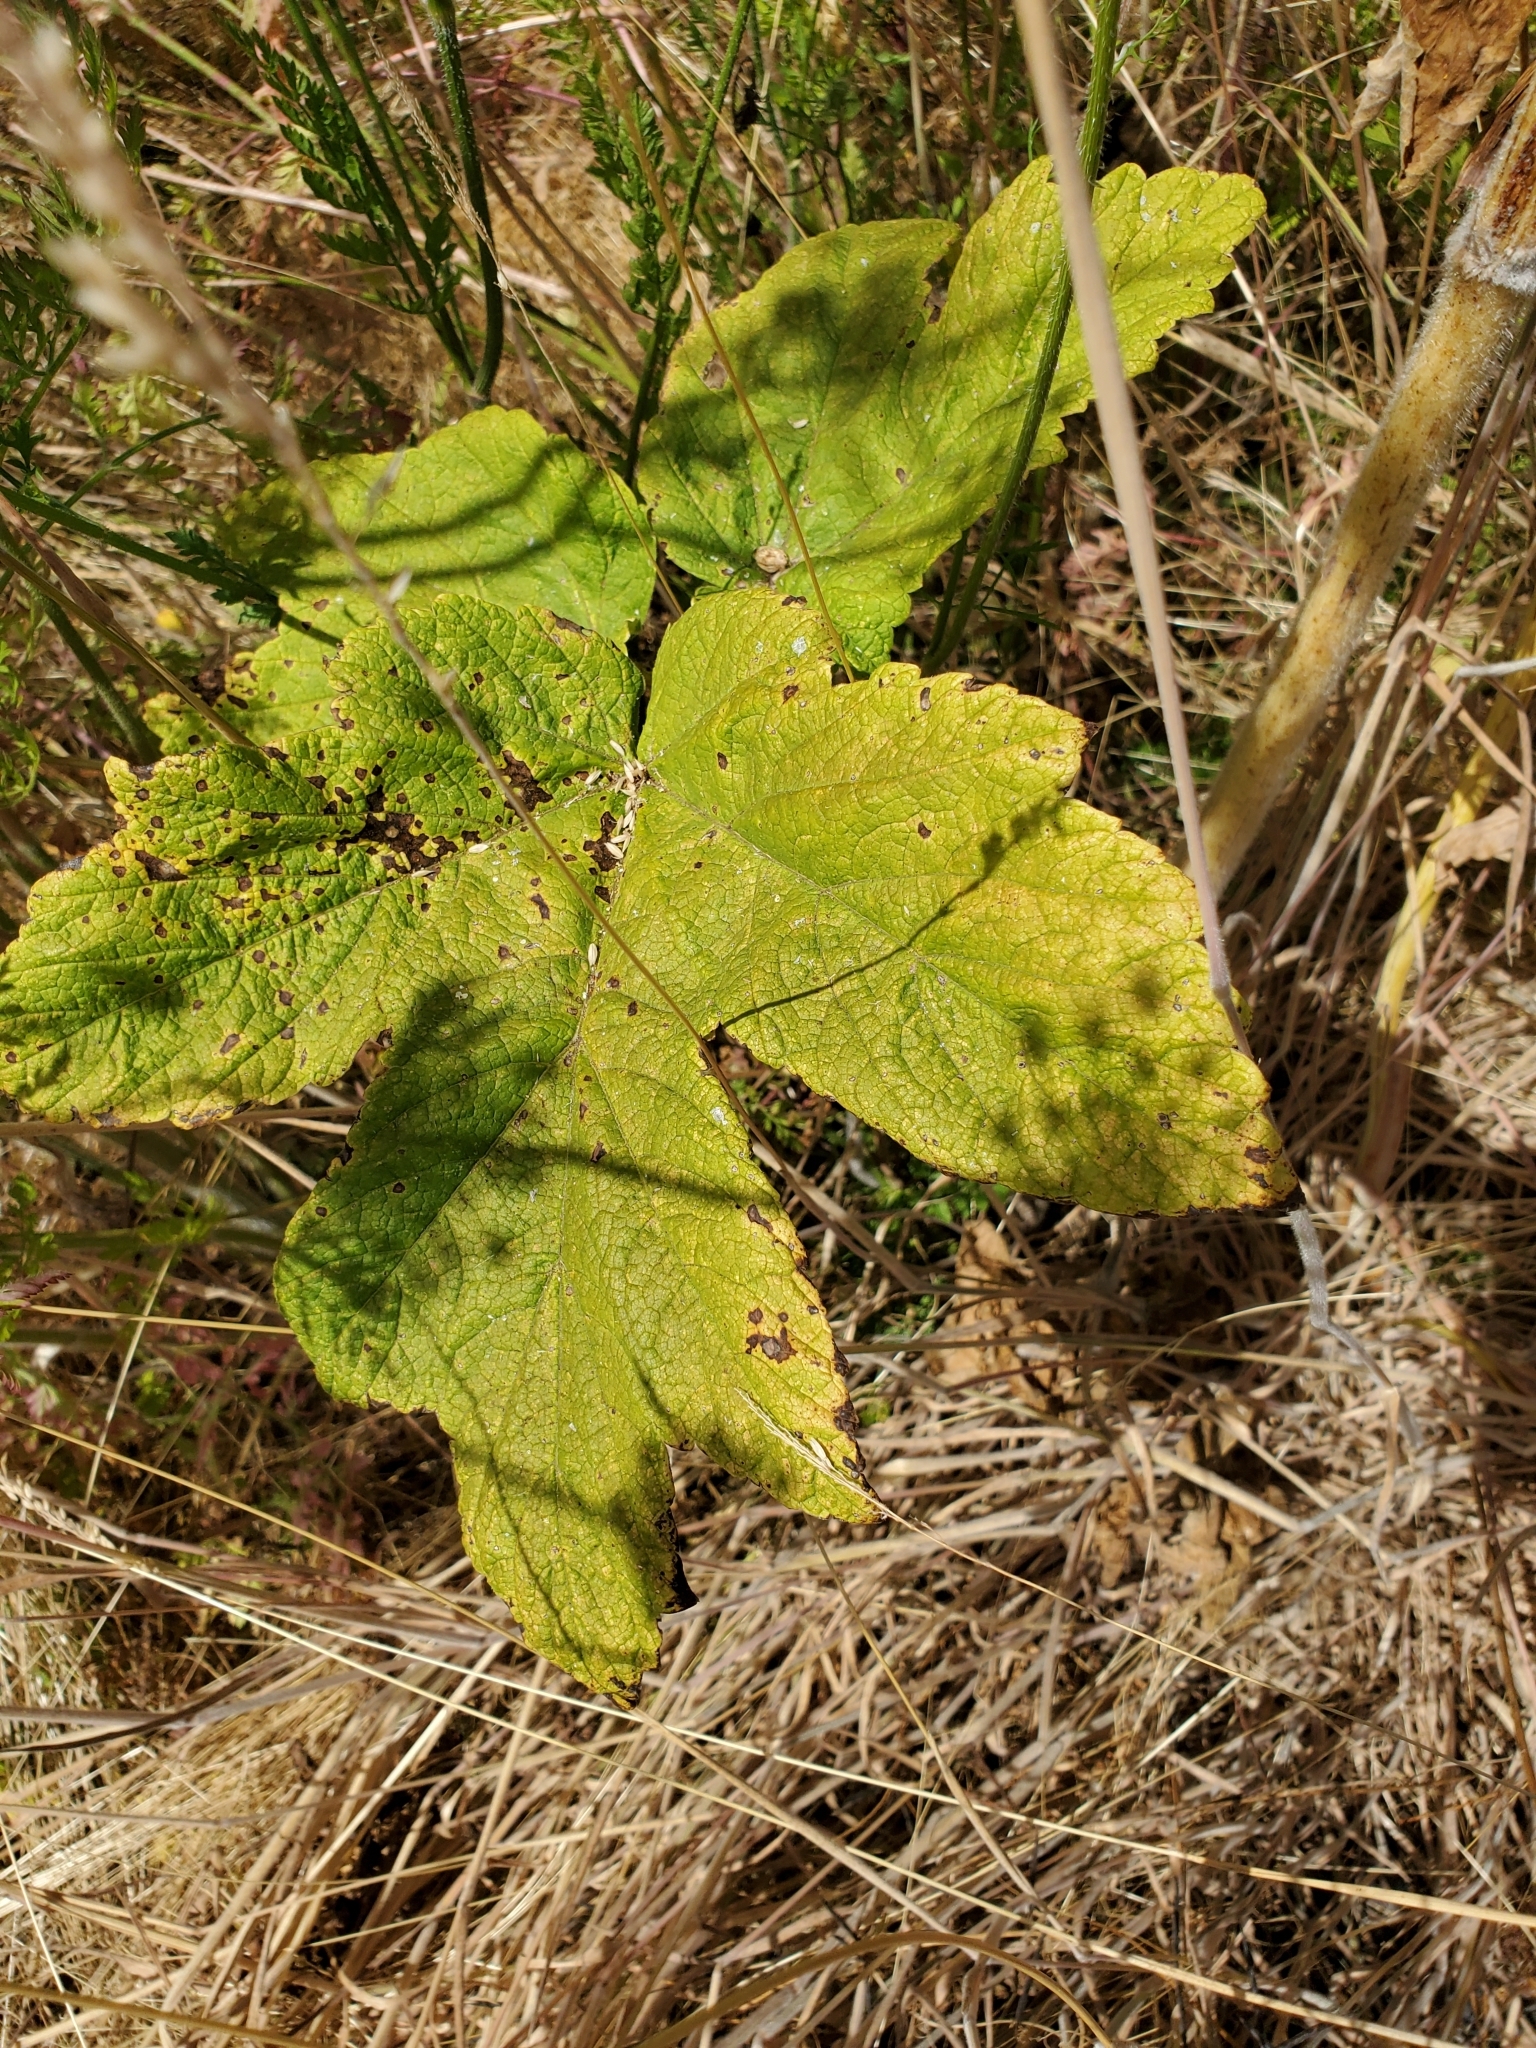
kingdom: Plantae
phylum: Tracheophyta
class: Magnoliopsida
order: Apiales
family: Apiaceae
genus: Heracleum
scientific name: Heracleum maximum
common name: American cow parsnip
